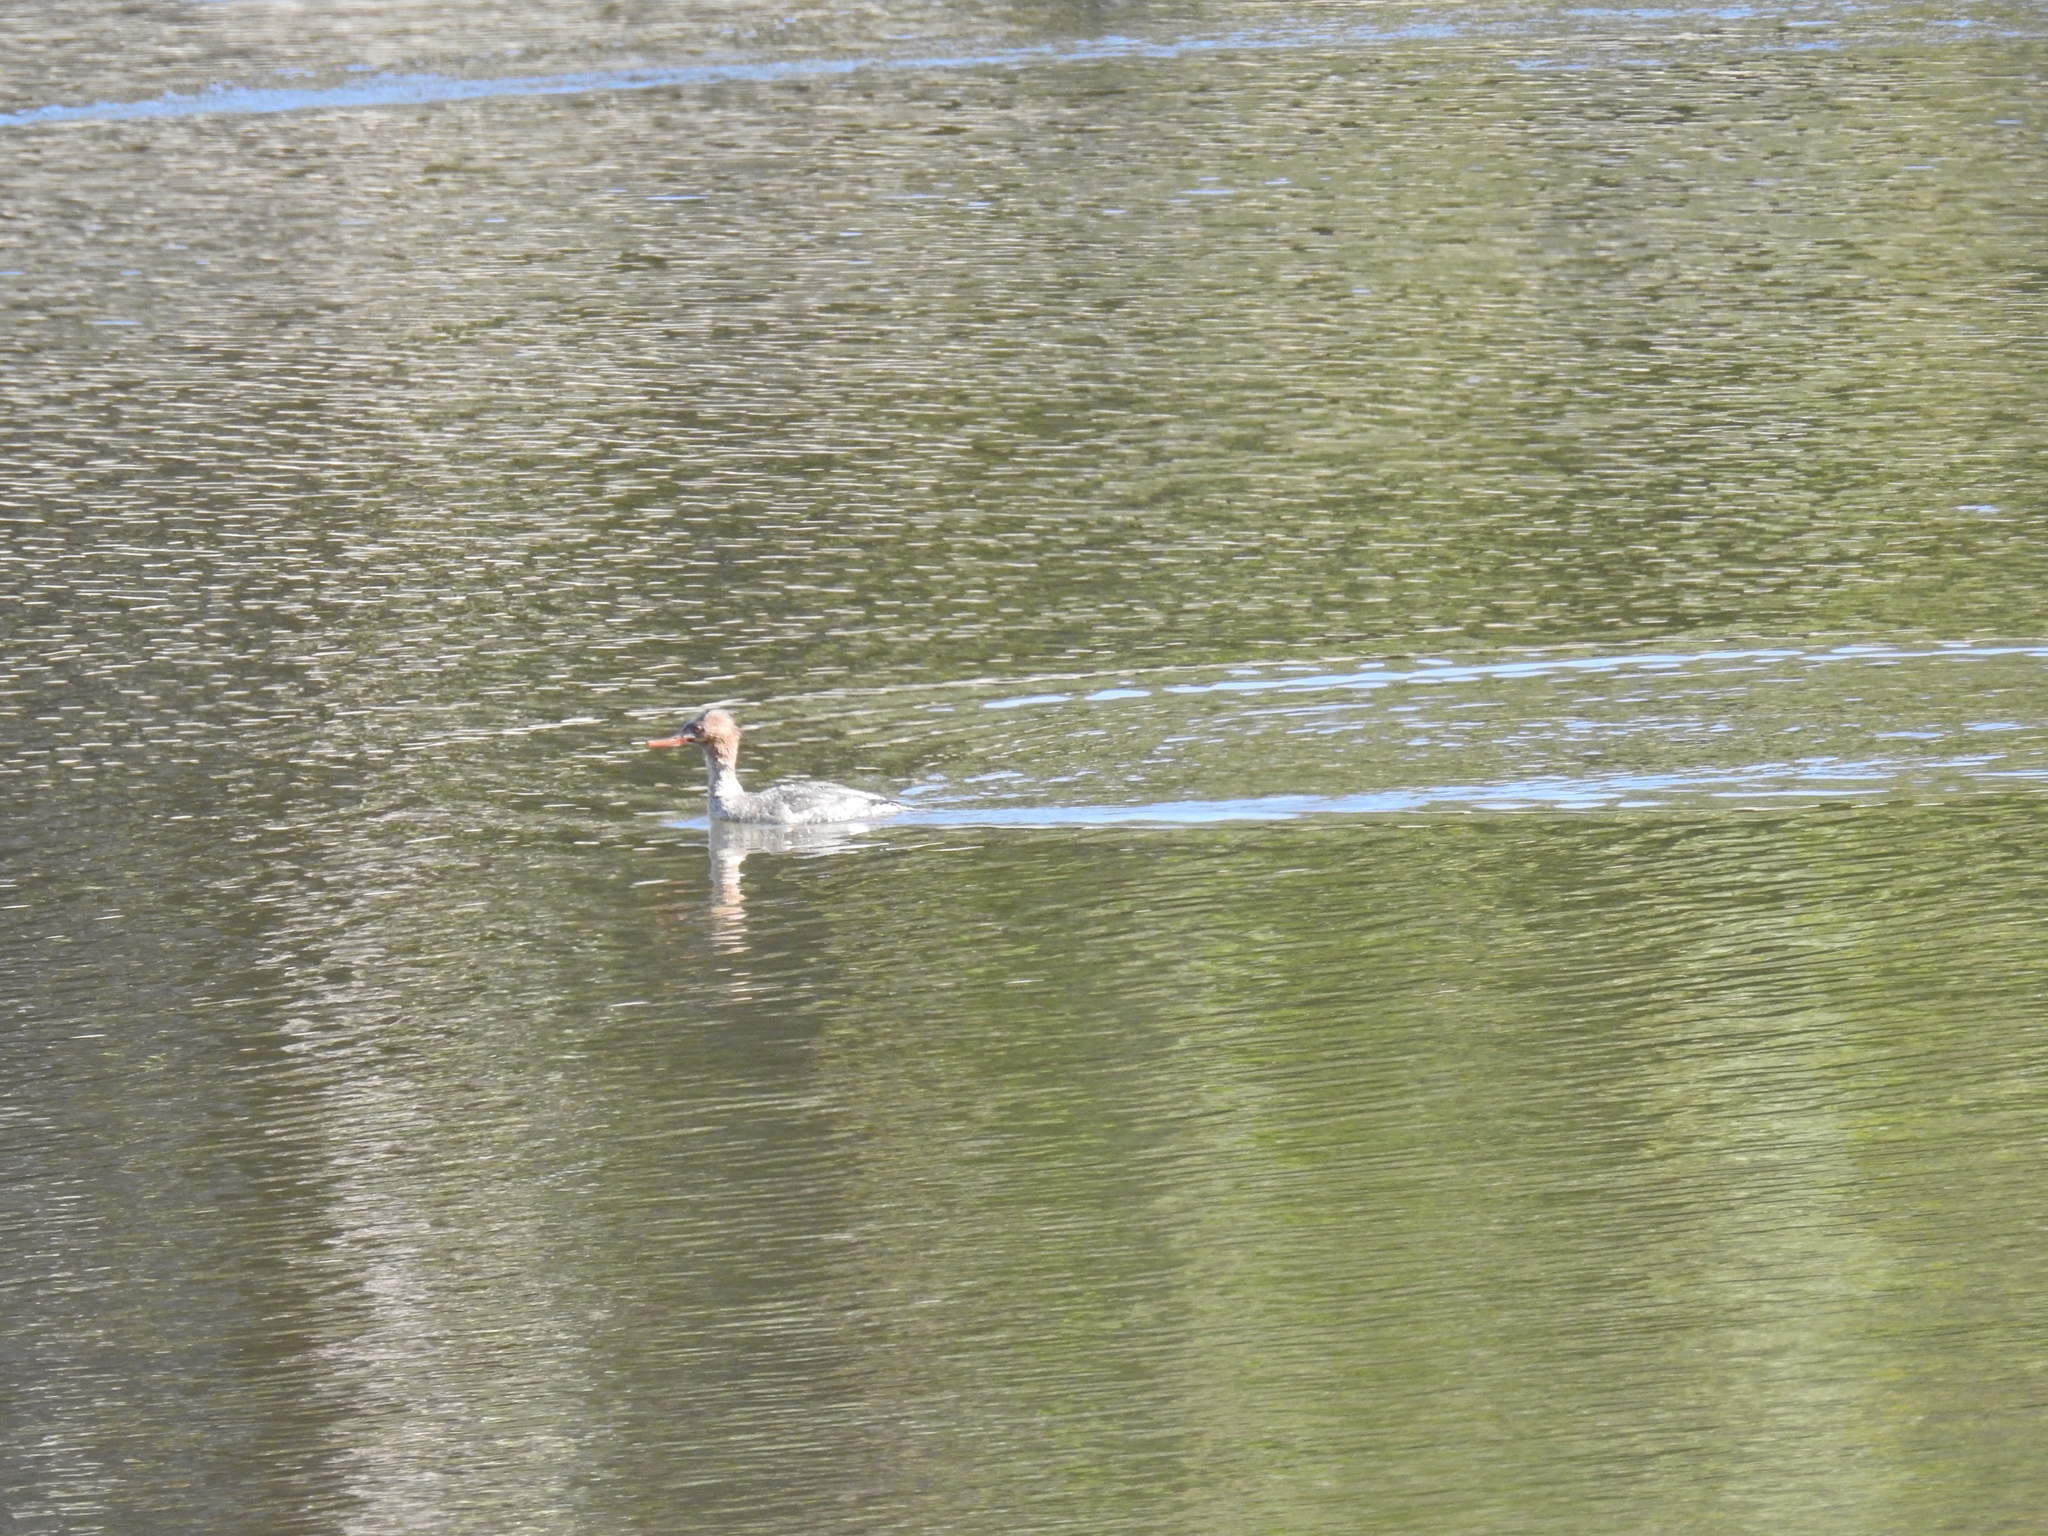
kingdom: Animalia
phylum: Chordata
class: Aves
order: Anseriformes
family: Anatidae
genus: Mergus
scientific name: Mergus serrator
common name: Red-breasted merganser
